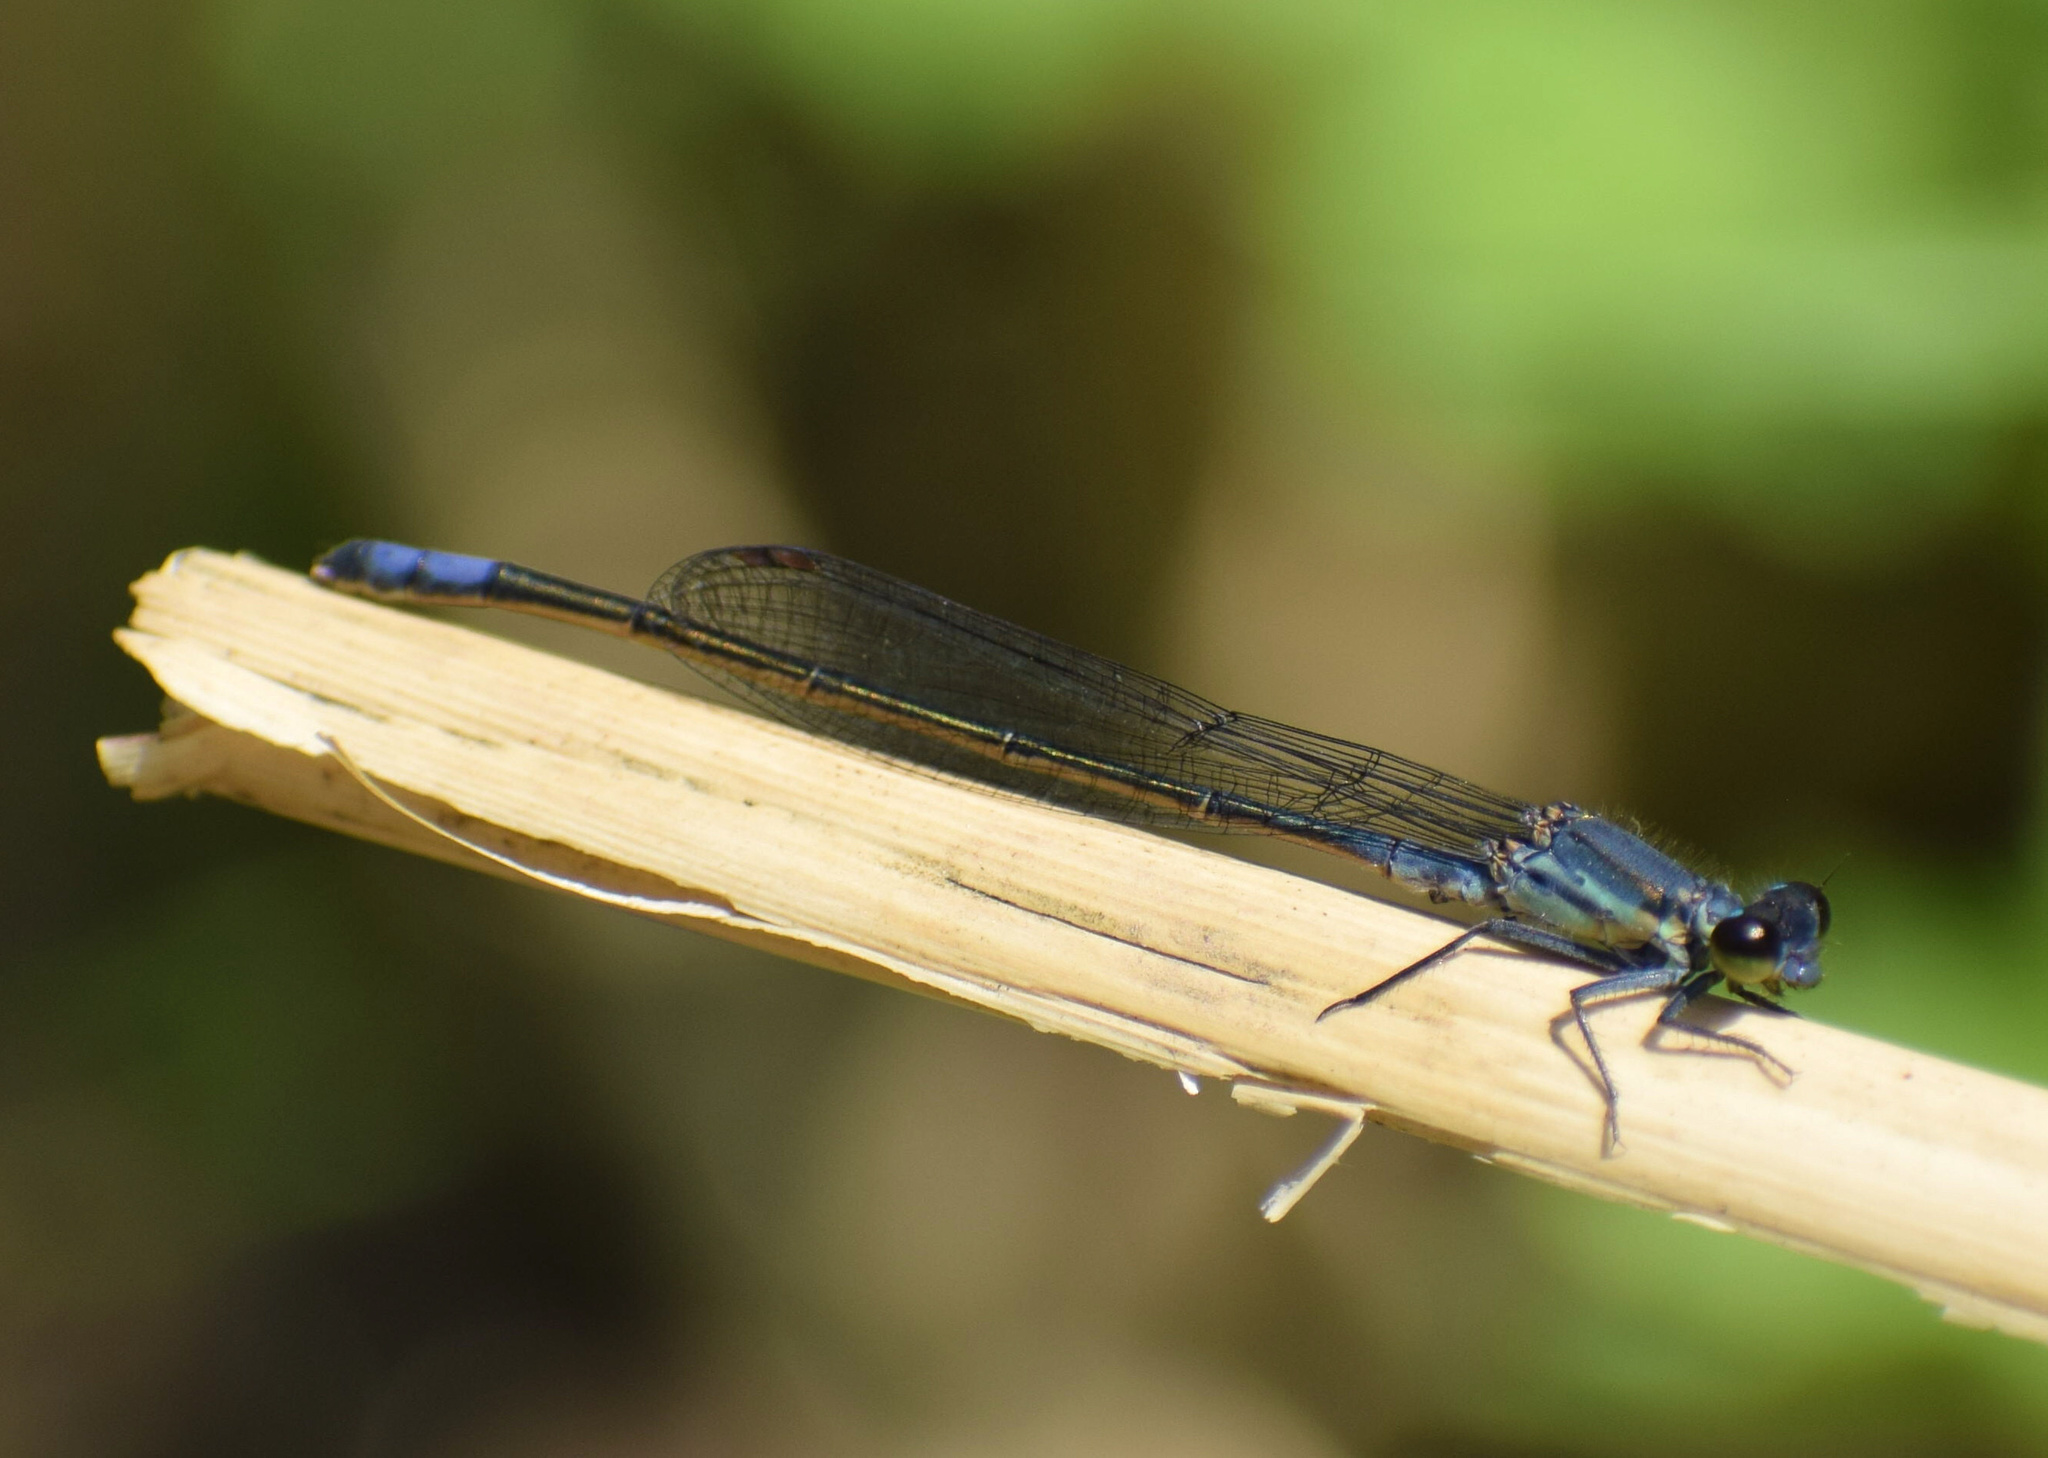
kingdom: Animalia
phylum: Arthropoda
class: Insecta
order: Odonata
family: Coenagrionidae
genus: Pseudagrion
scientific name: Pseudagrion salisburyense
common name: Slate sprite
